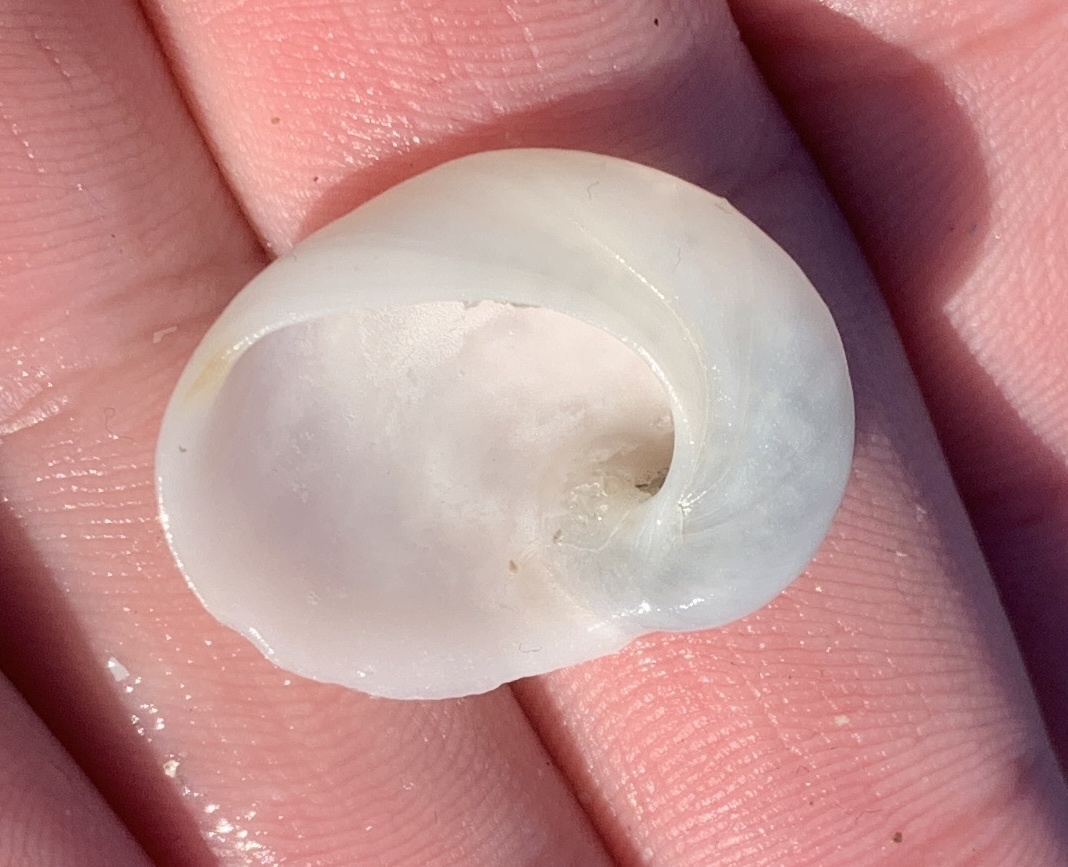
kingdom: Animalia
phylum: Mollusca
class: Gastropoda
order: Littorinimorpha
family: Naticidae
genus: Sinum
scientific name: Sinum perspectivum
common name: White baby ear
